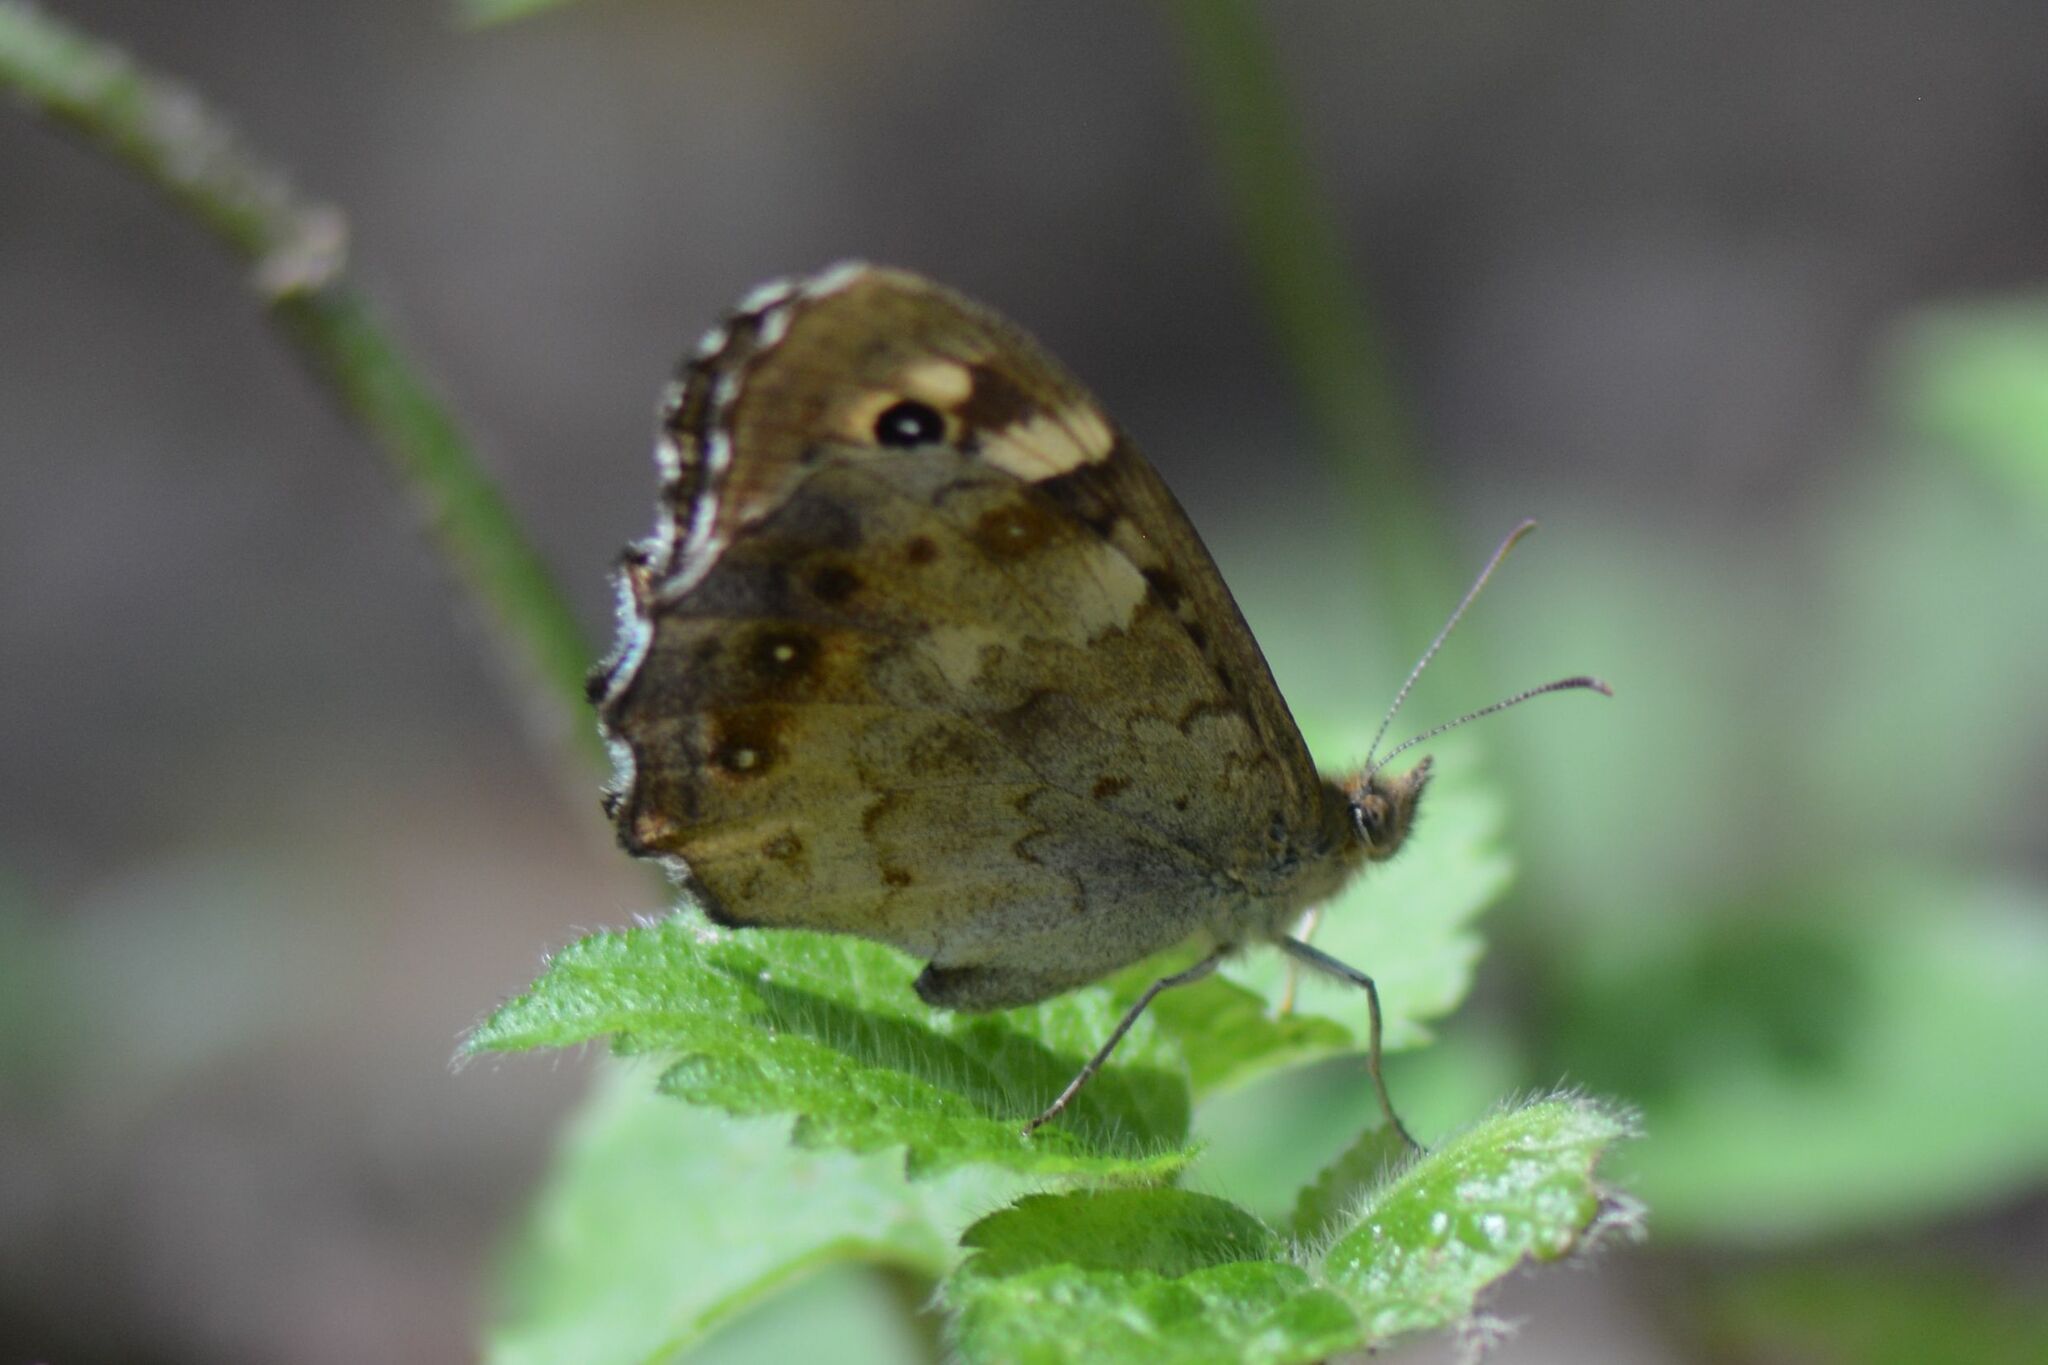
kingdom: Animalia
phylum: Arthropoda
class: Insecta
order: Lepidoptera
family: Nymphalidae
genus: Pararge
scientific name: Pararge aegeria
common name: Speckled wood
